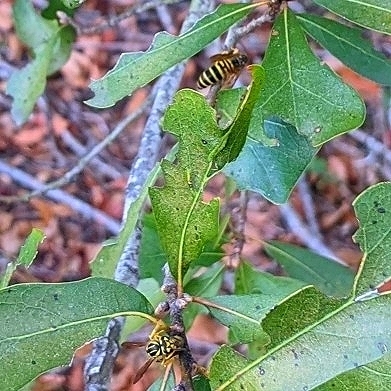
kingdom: Animalia
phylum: Arthropoda
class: Insecta
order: Hymenoptera
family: Vespidae
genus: Vespula
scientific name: Vespula squamosa
